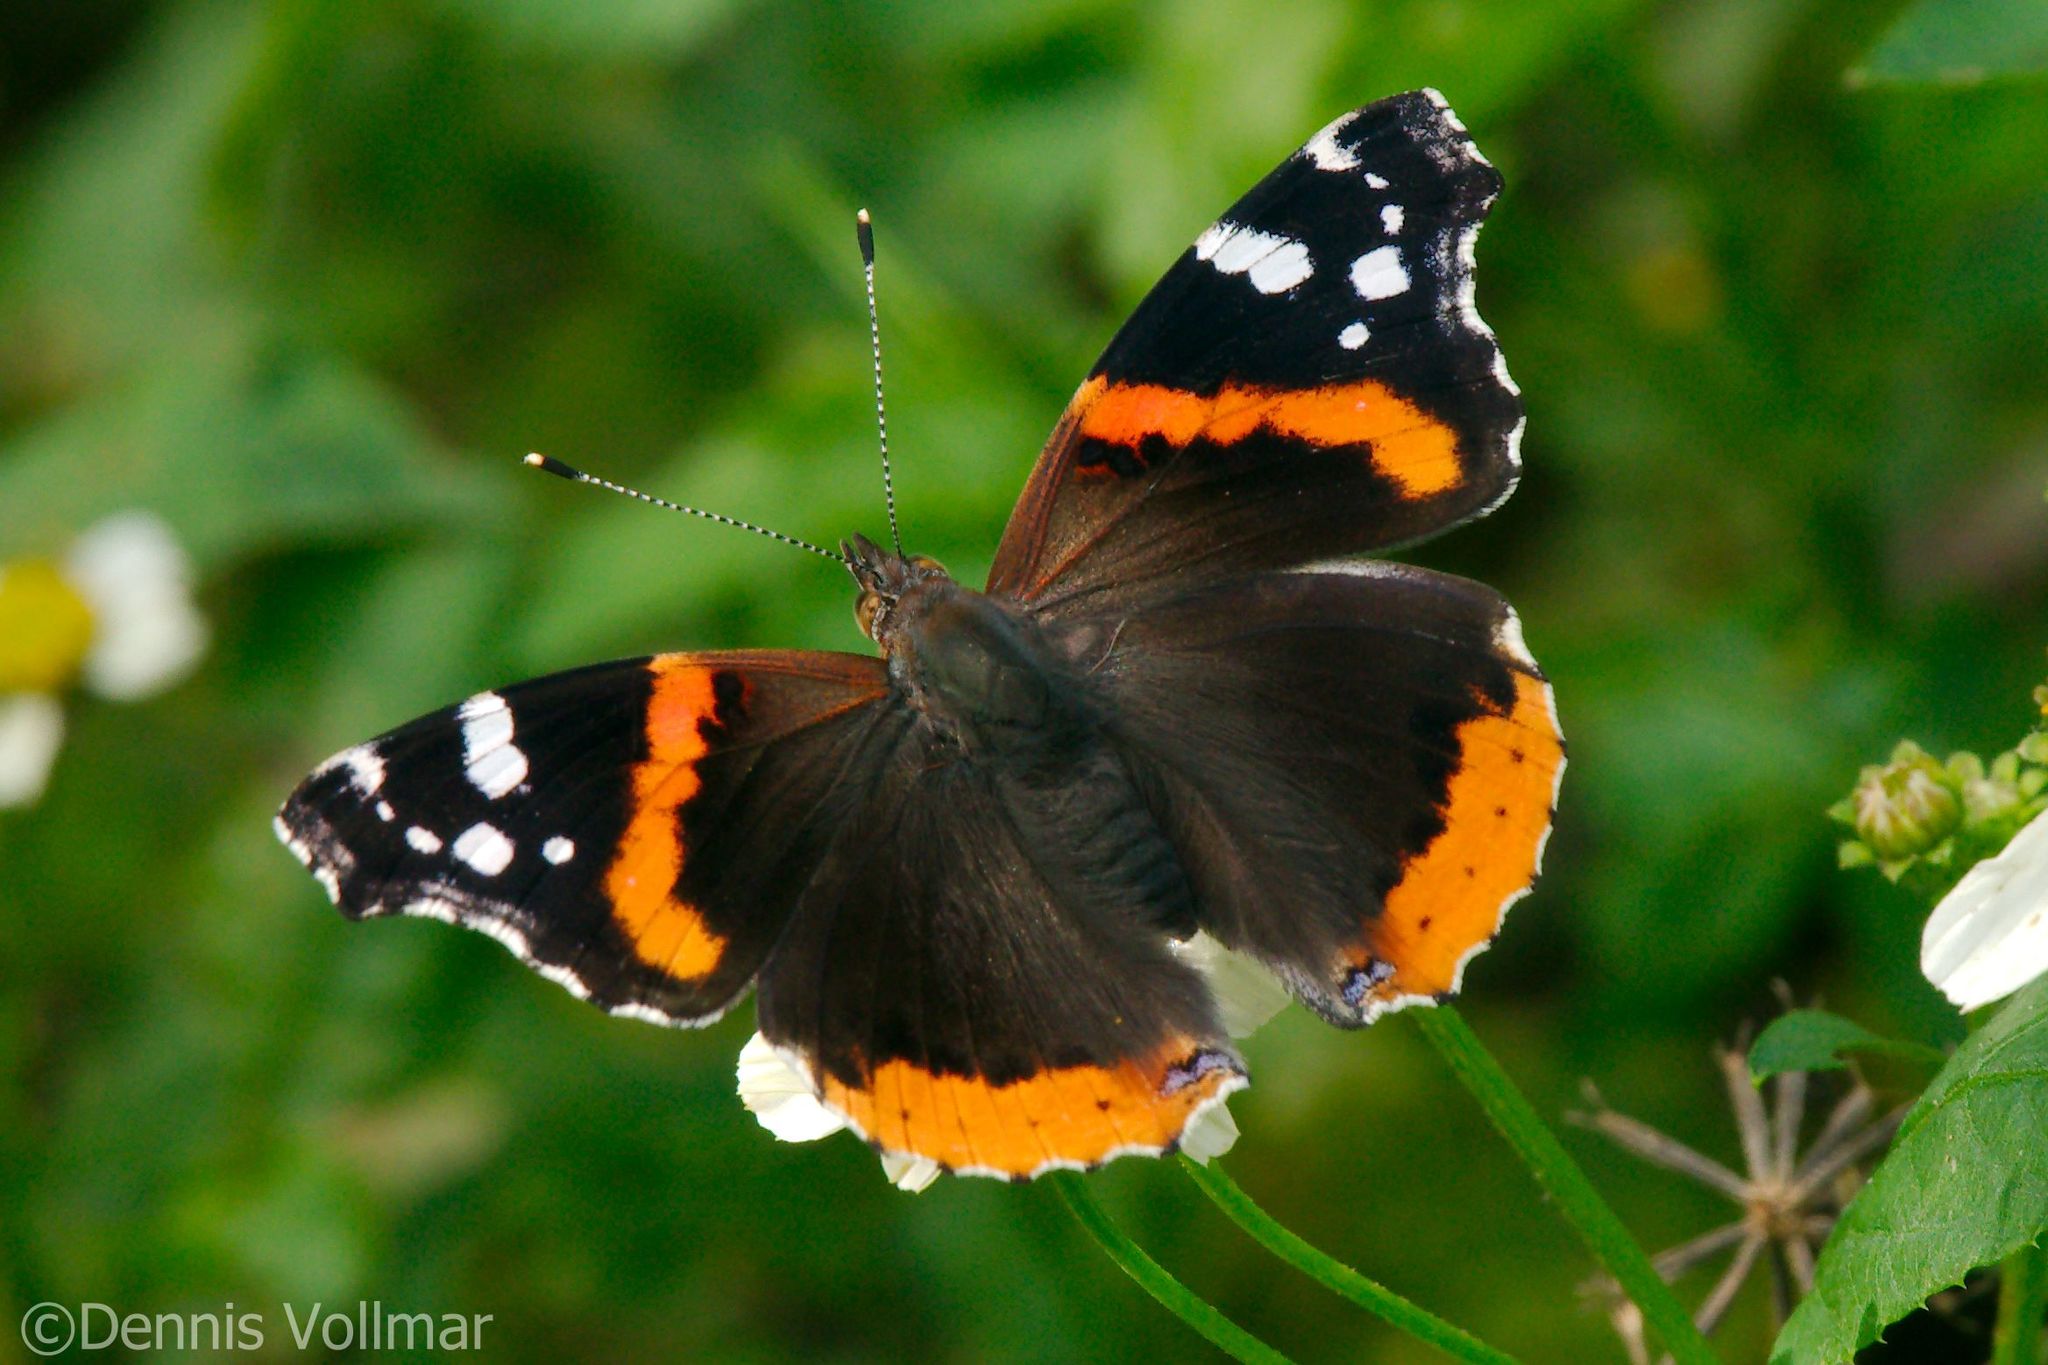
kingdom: Animalia
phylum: Arthropoda
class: Insecta
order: Lepidoptera
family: Nymphalidae
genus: Vanessa
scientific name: Vanessa atalanta
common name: Red admiral
